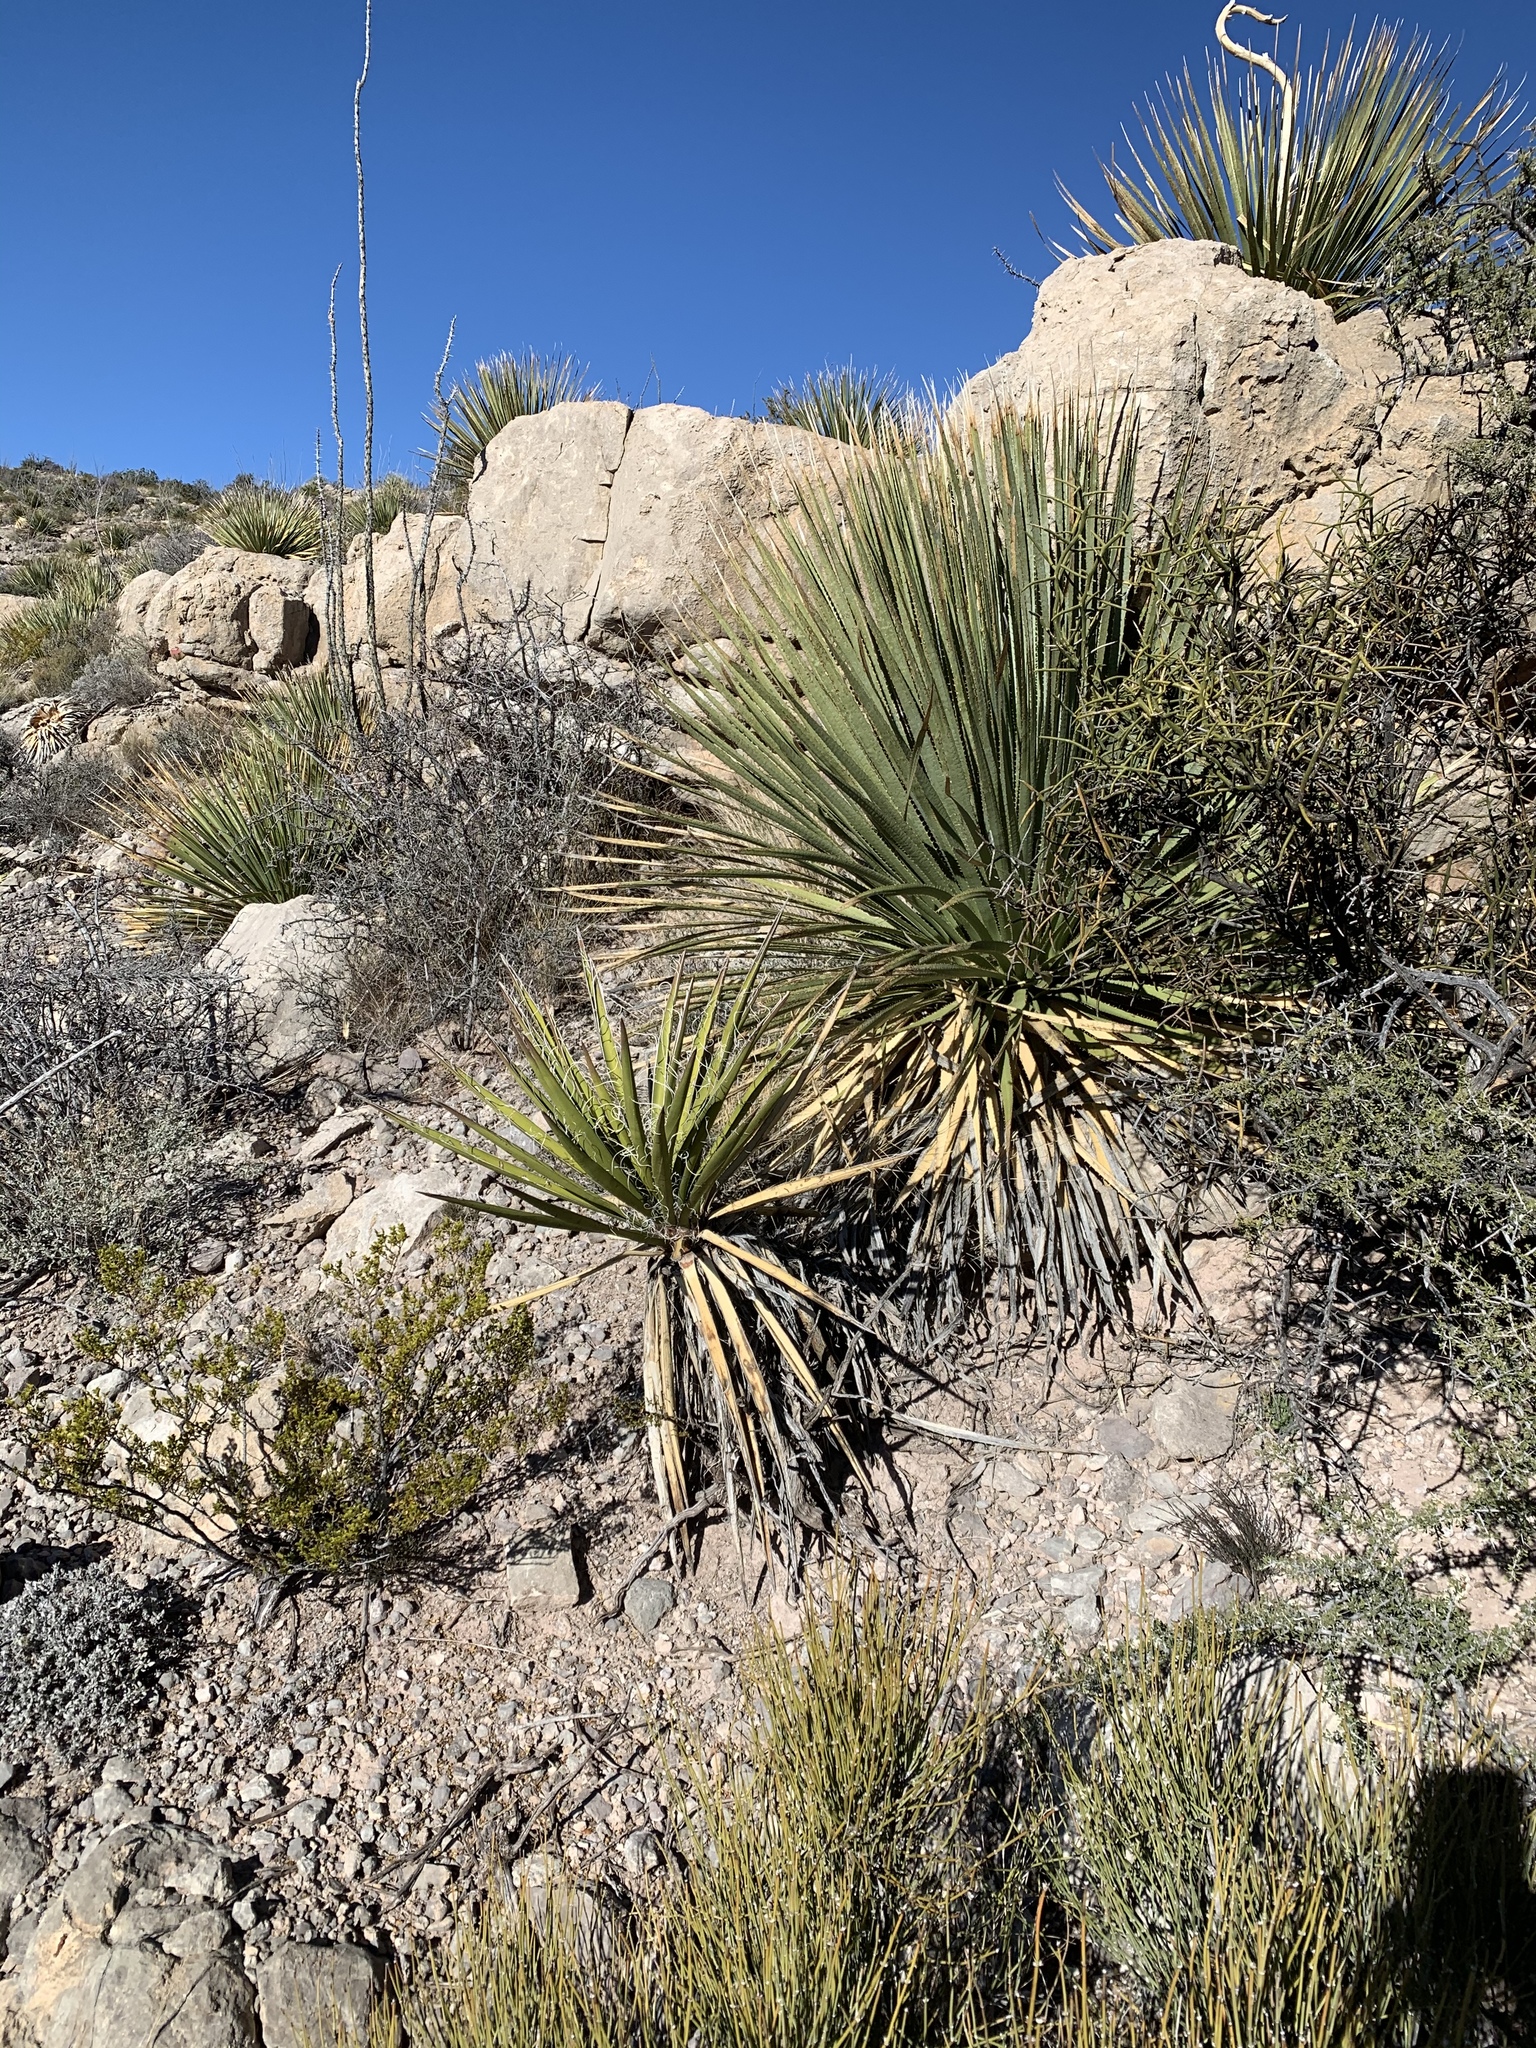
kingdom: Plantae
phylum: Tracheophyta
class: Liliopsida
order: Asparagales
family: Asparagaceae
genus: Dasylirion
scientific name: Dasylirion wheeleri
